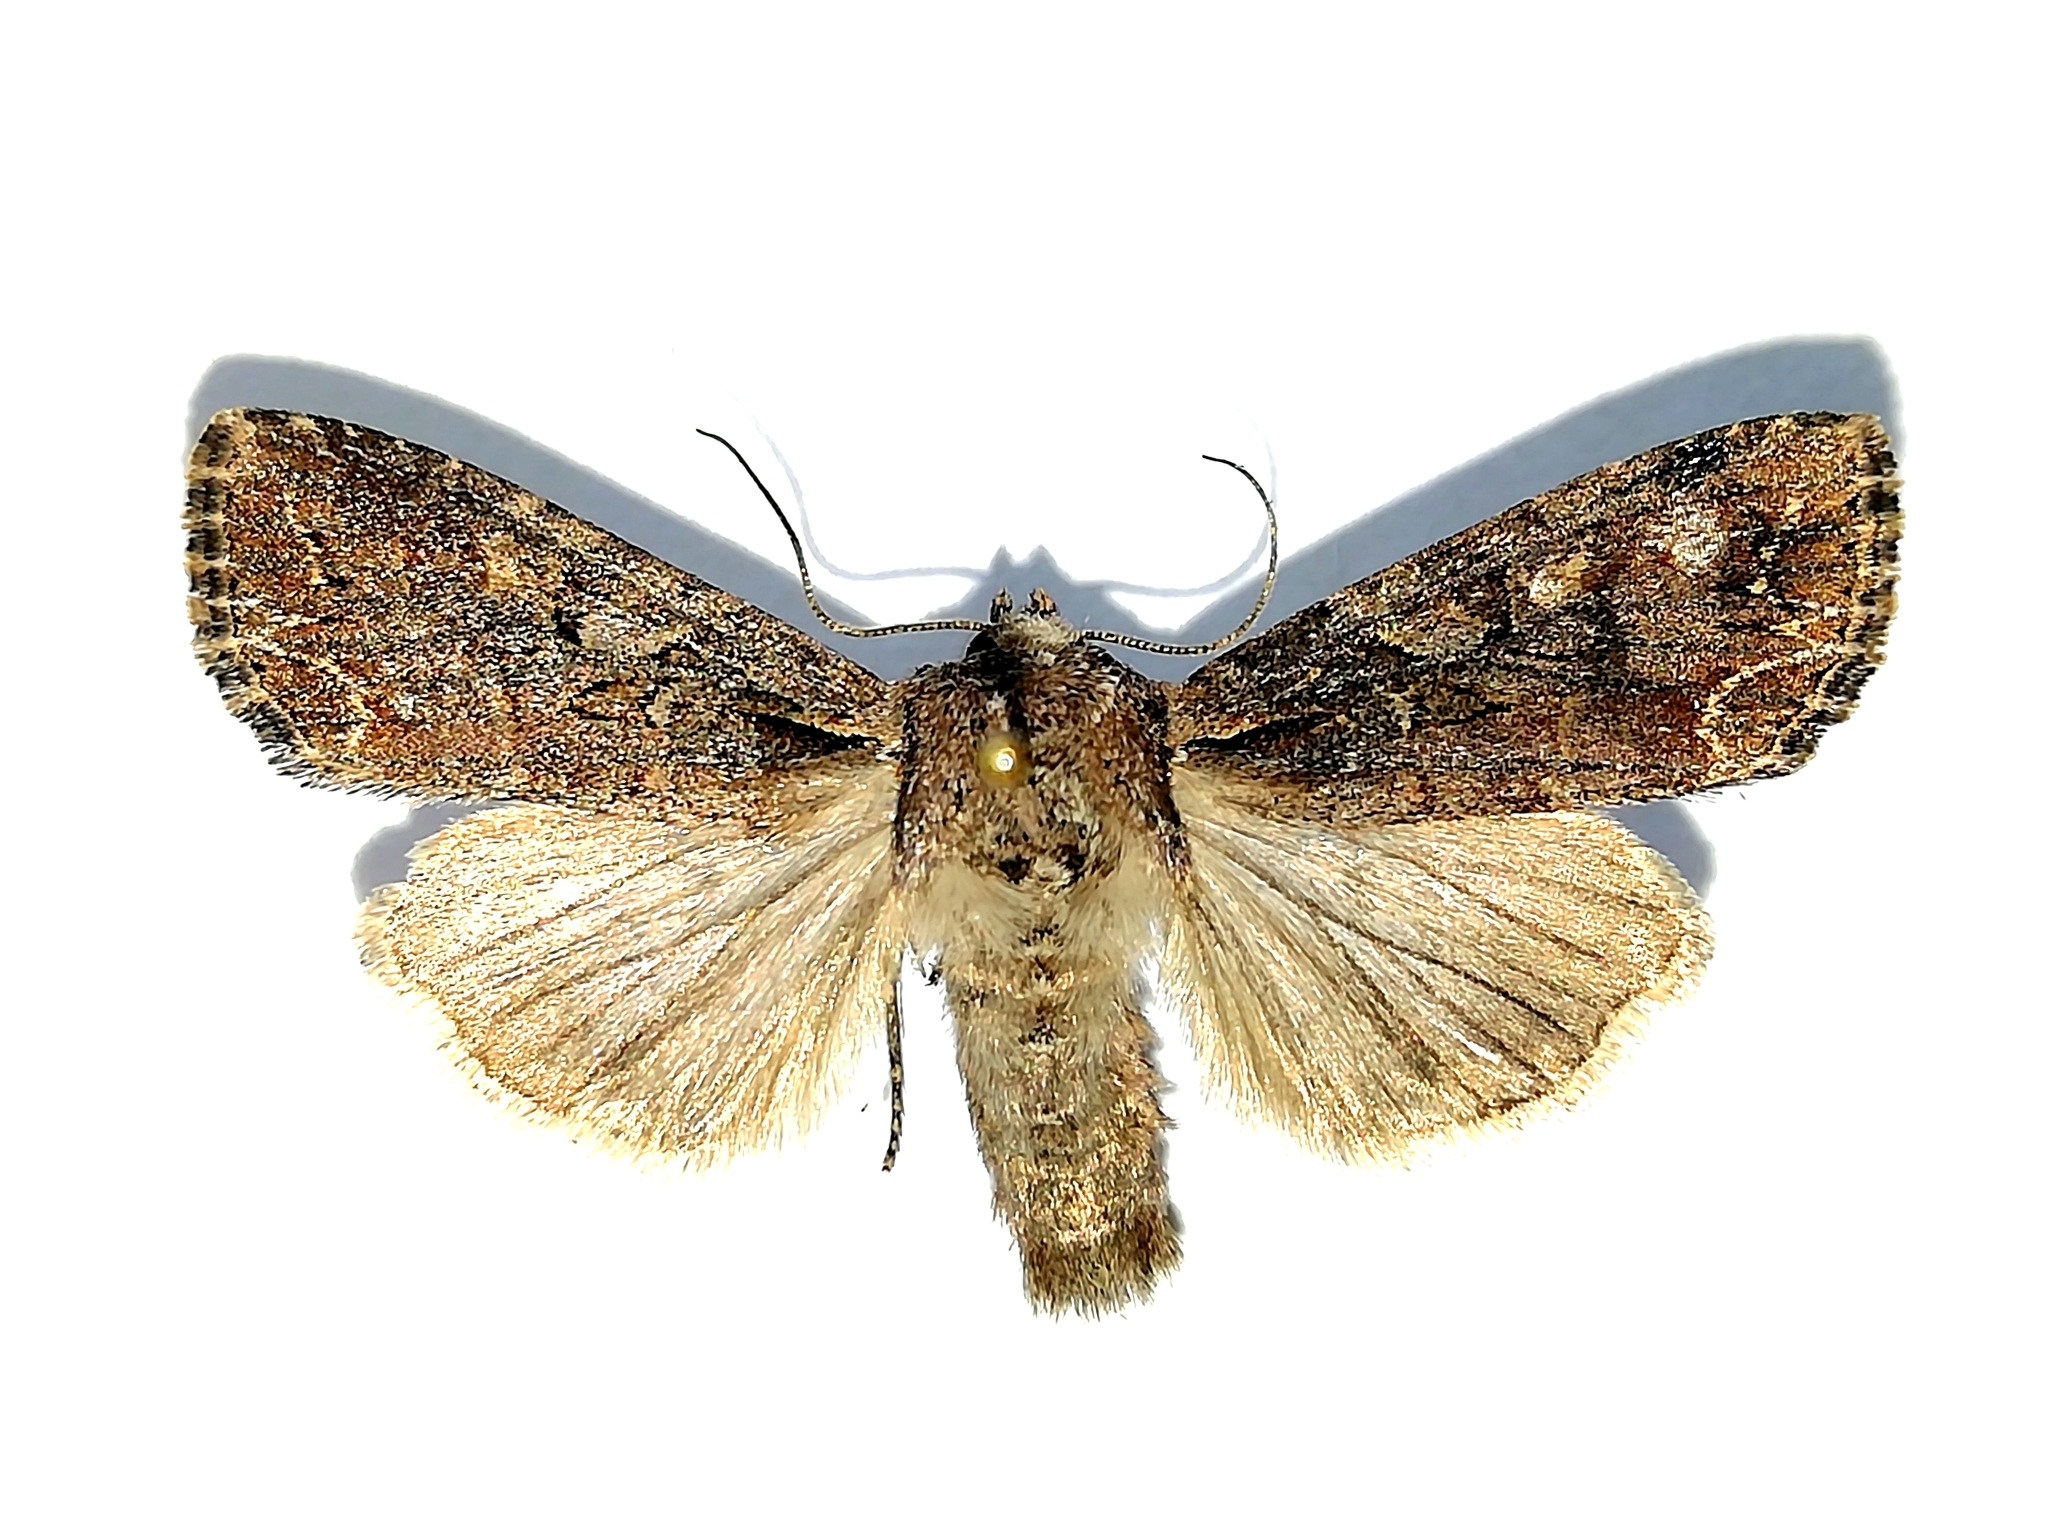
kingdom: Animalia
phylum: Arthropoda
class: Insecta
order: Lepidoptera
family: Noctuidae
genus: Lacanobia
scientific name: Lacanobia suasa
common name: Dog's tooth
